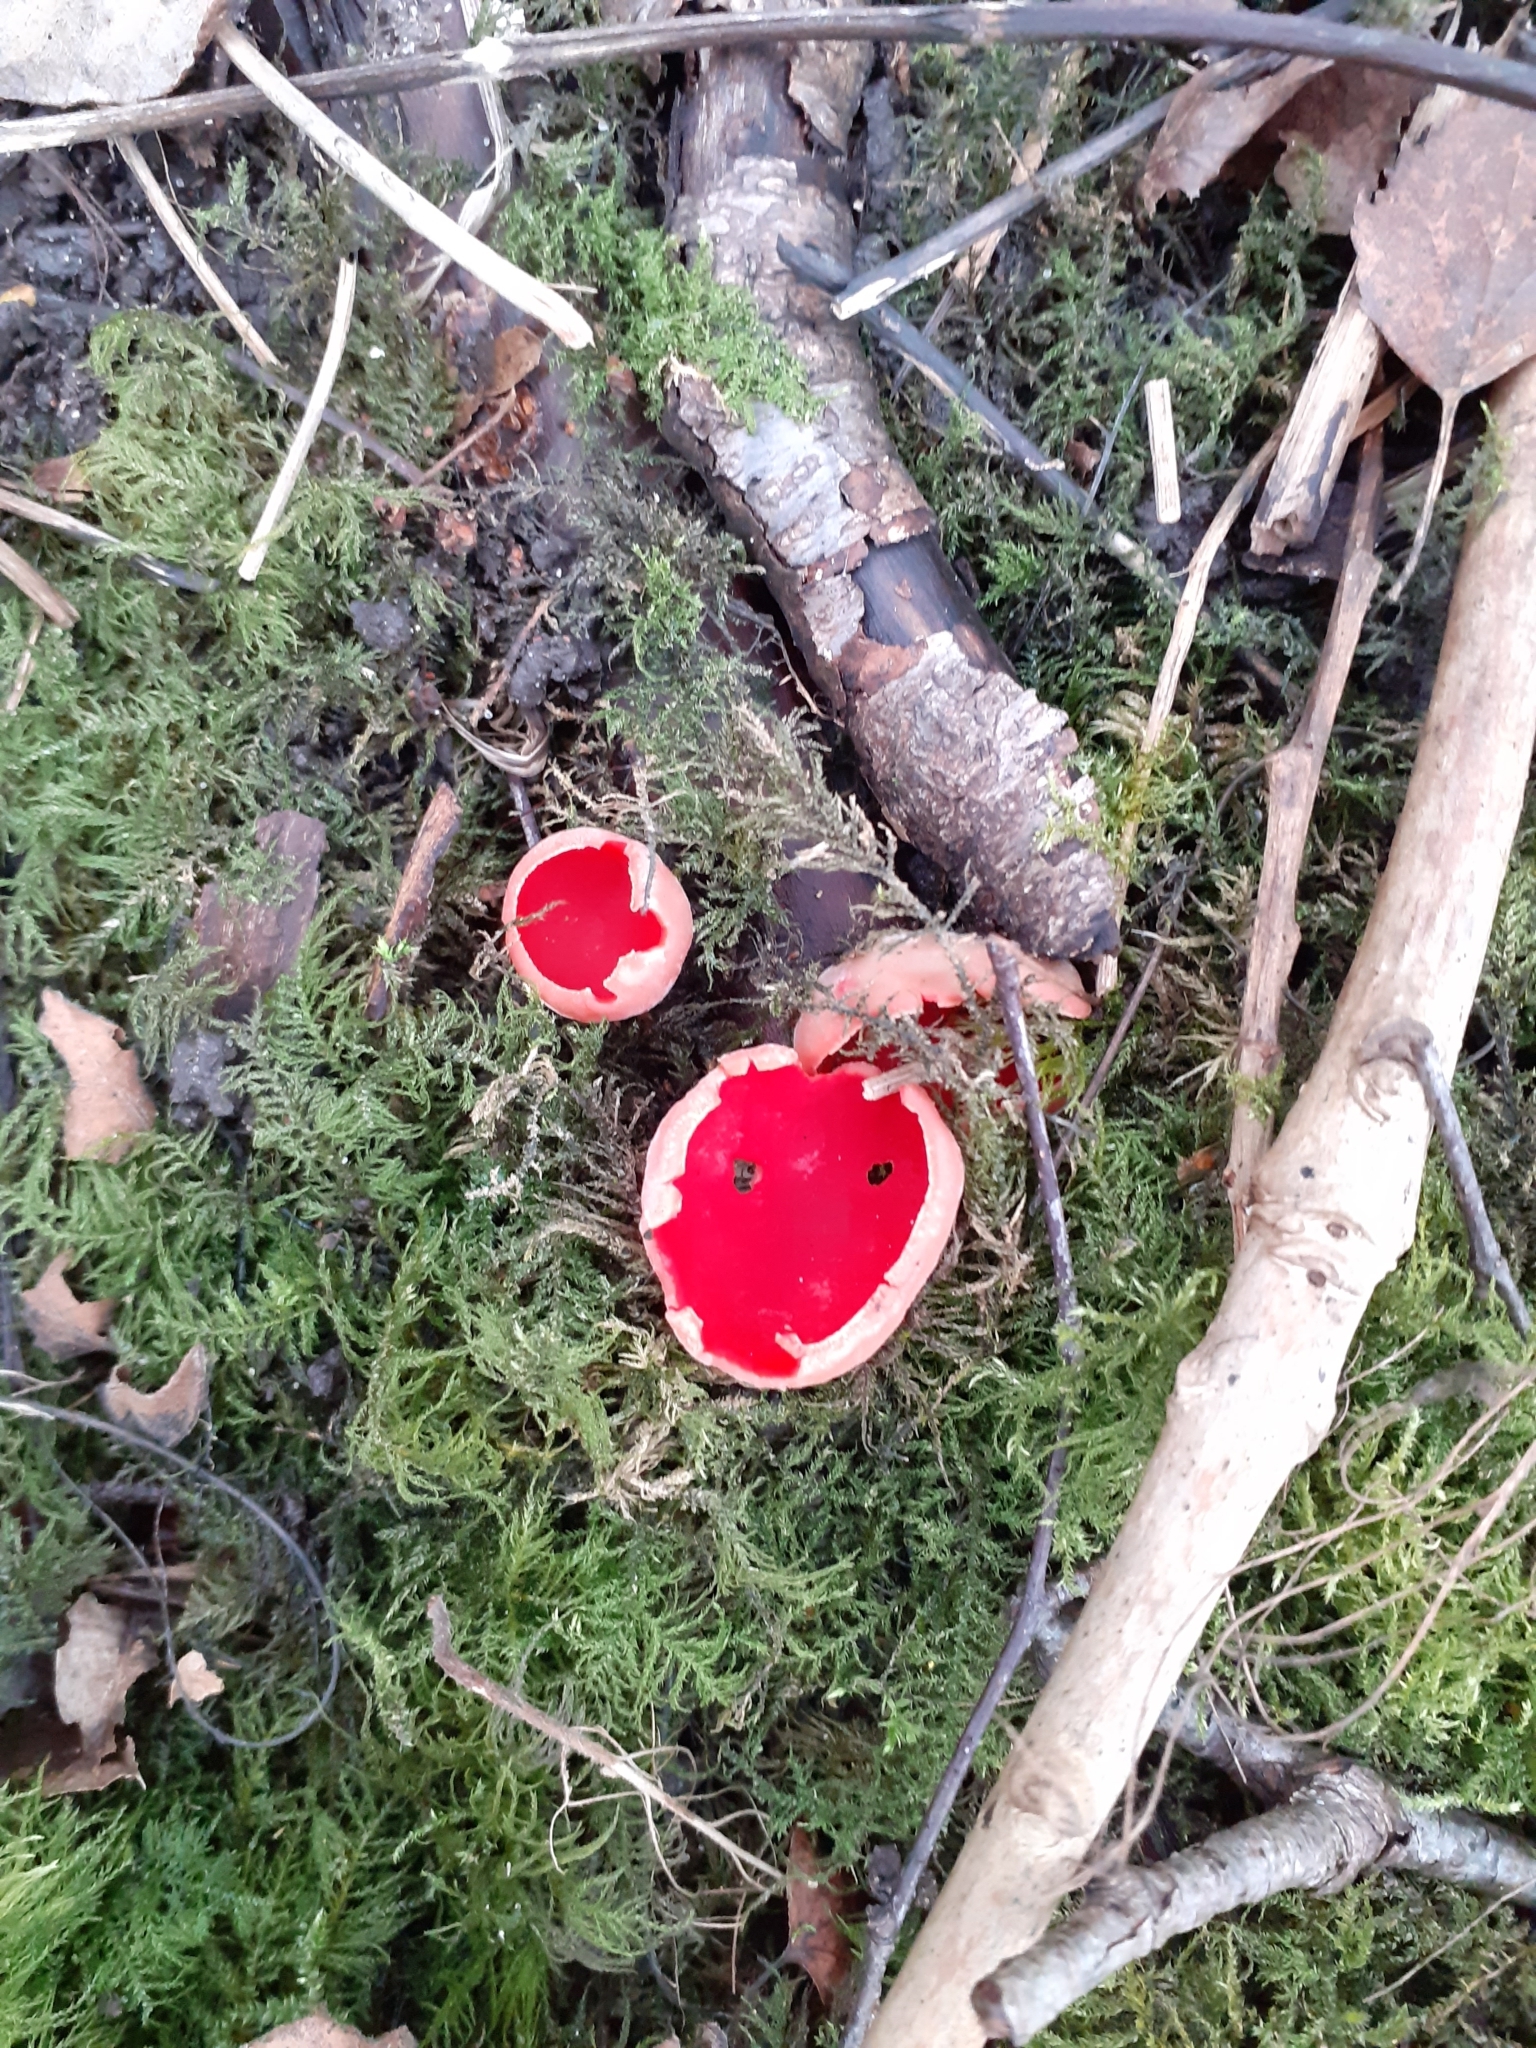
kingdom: Fungi
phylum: Ascomycota
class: Pezizomycetes
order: Pezizales
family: Sarcoscyphaceae
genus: Sarcoscypha
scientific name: Sarcoscypha
